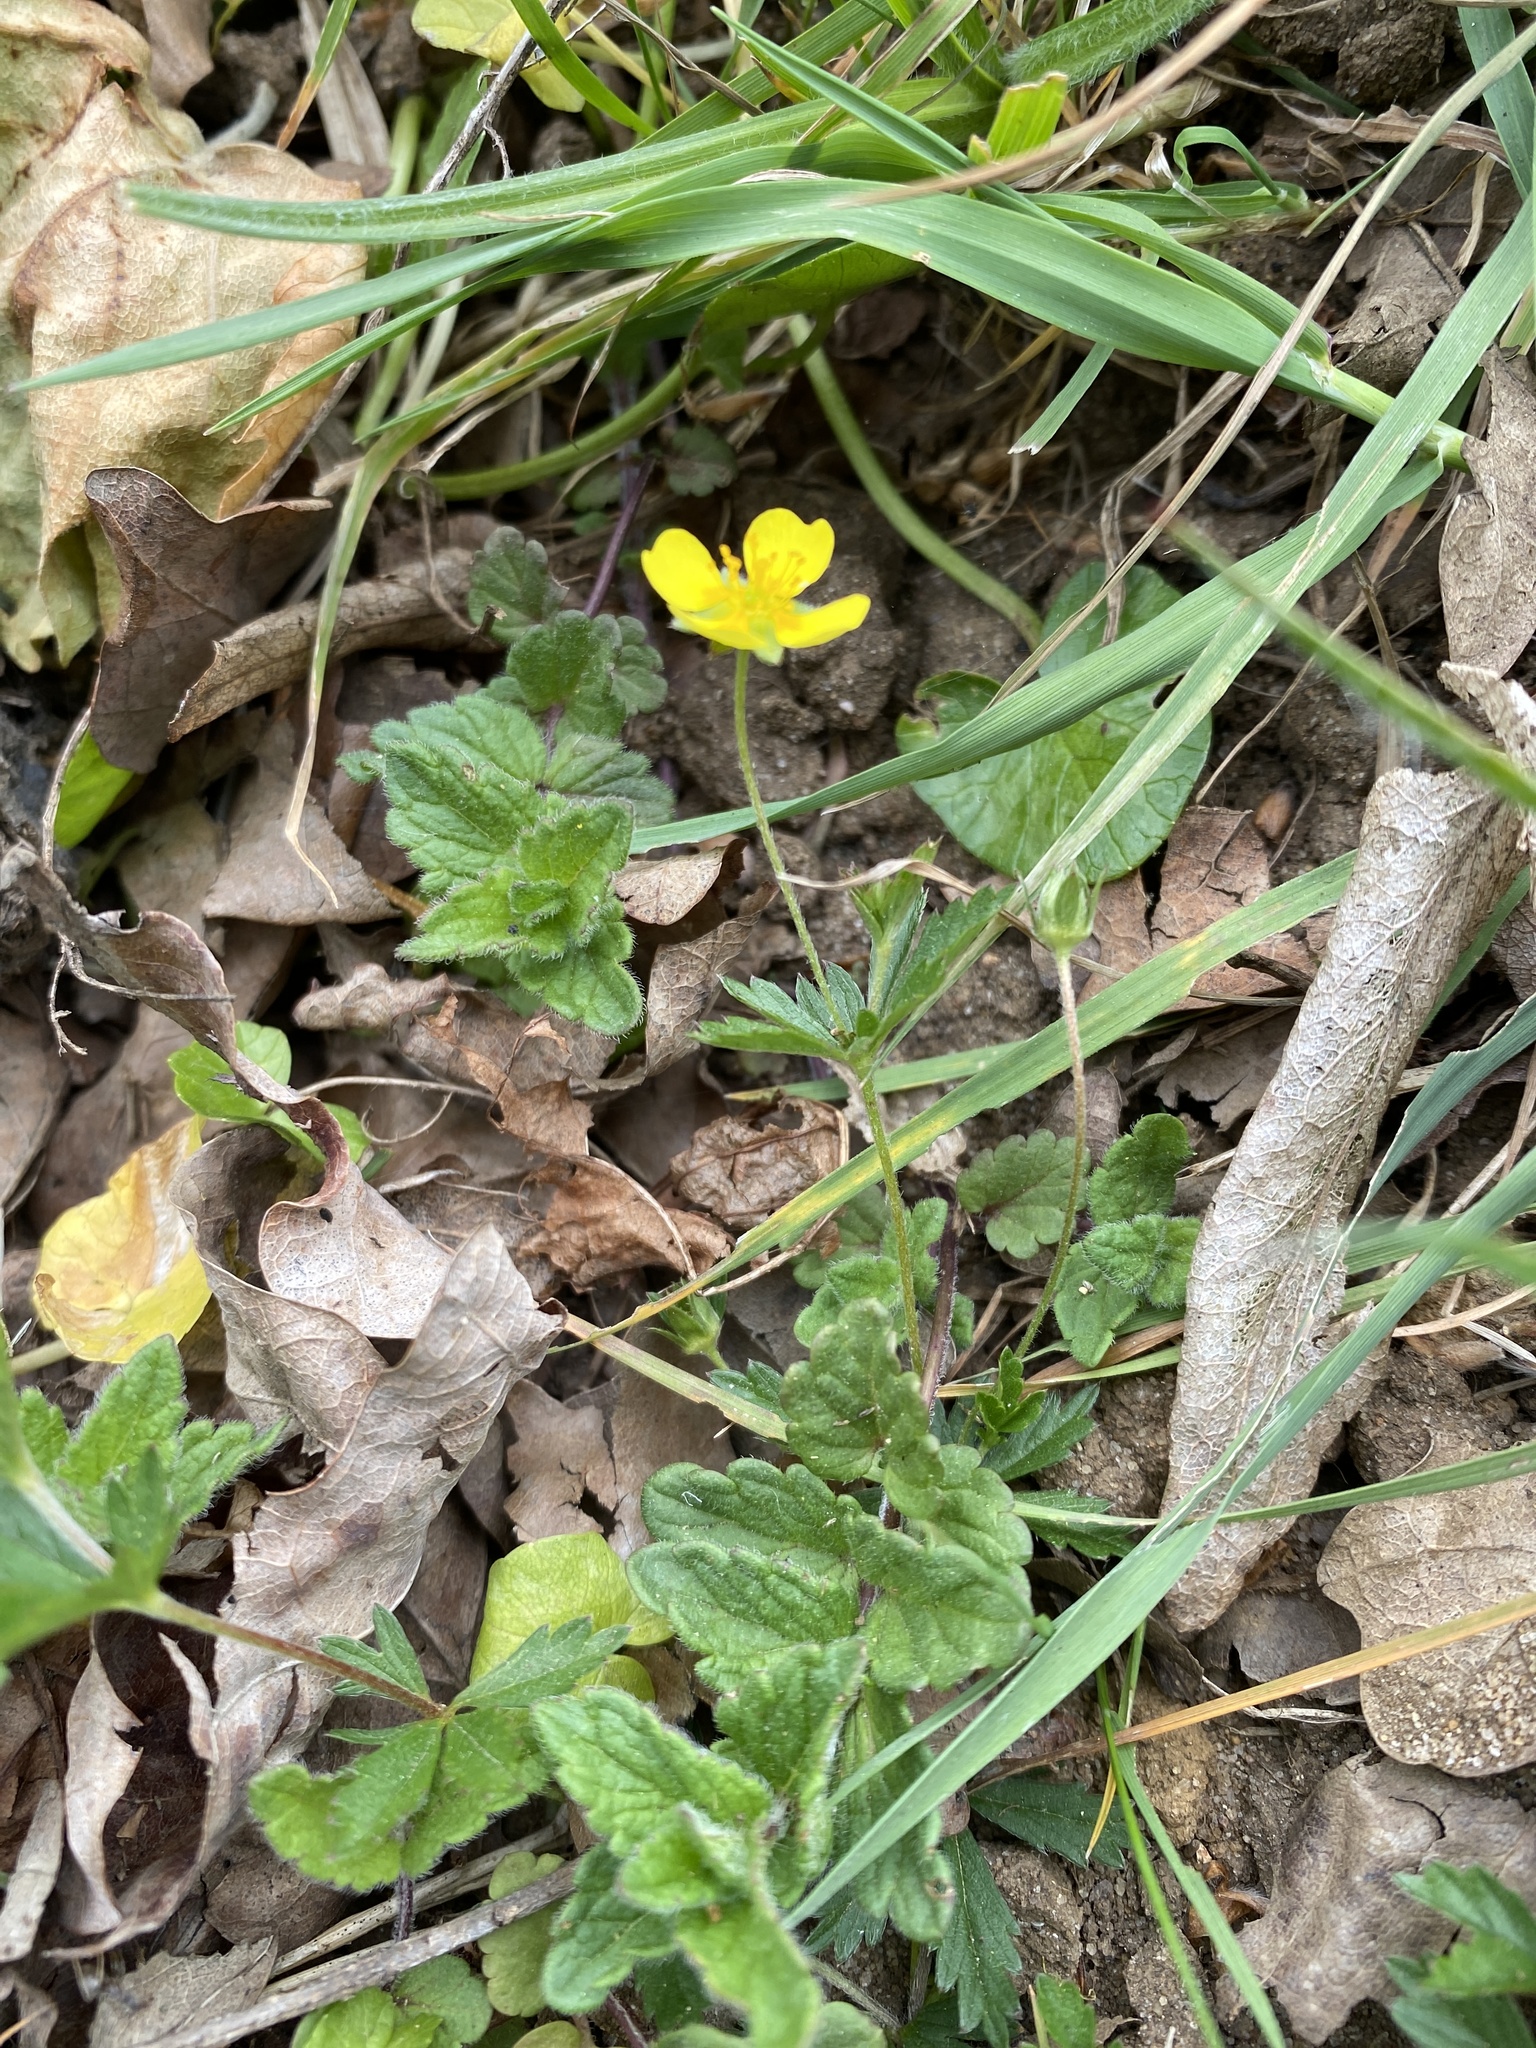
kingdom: Plantae
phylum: Tracheophyta
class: Magnoliopsida
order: Rosales
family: Rosaceae
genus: Potentilla
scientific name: Potentilla erecta
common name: Tormentil
